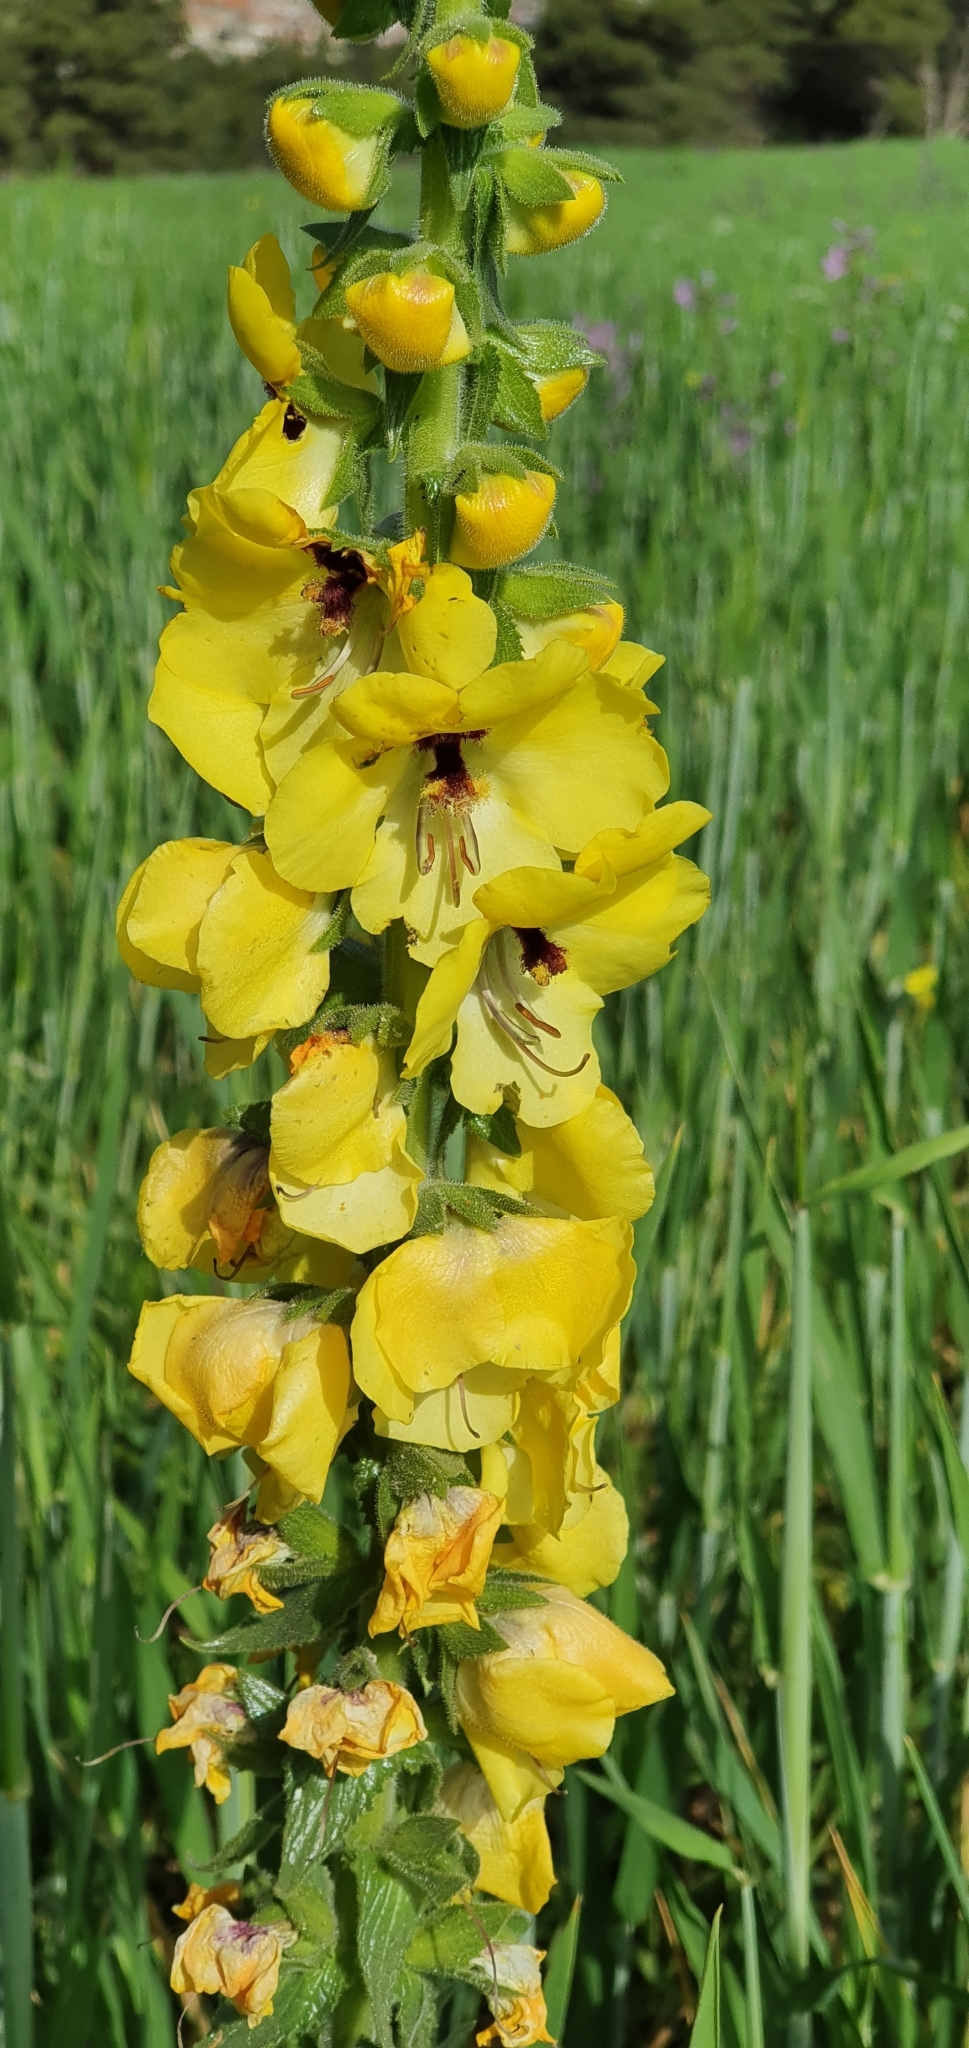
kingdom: Plantae
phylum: Tracheophyta
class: Magnoliopsida
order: Lamiales
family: Scrophulariaceae
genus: Verbascum
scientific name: Verbascum creticum
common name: Cretan mullein
